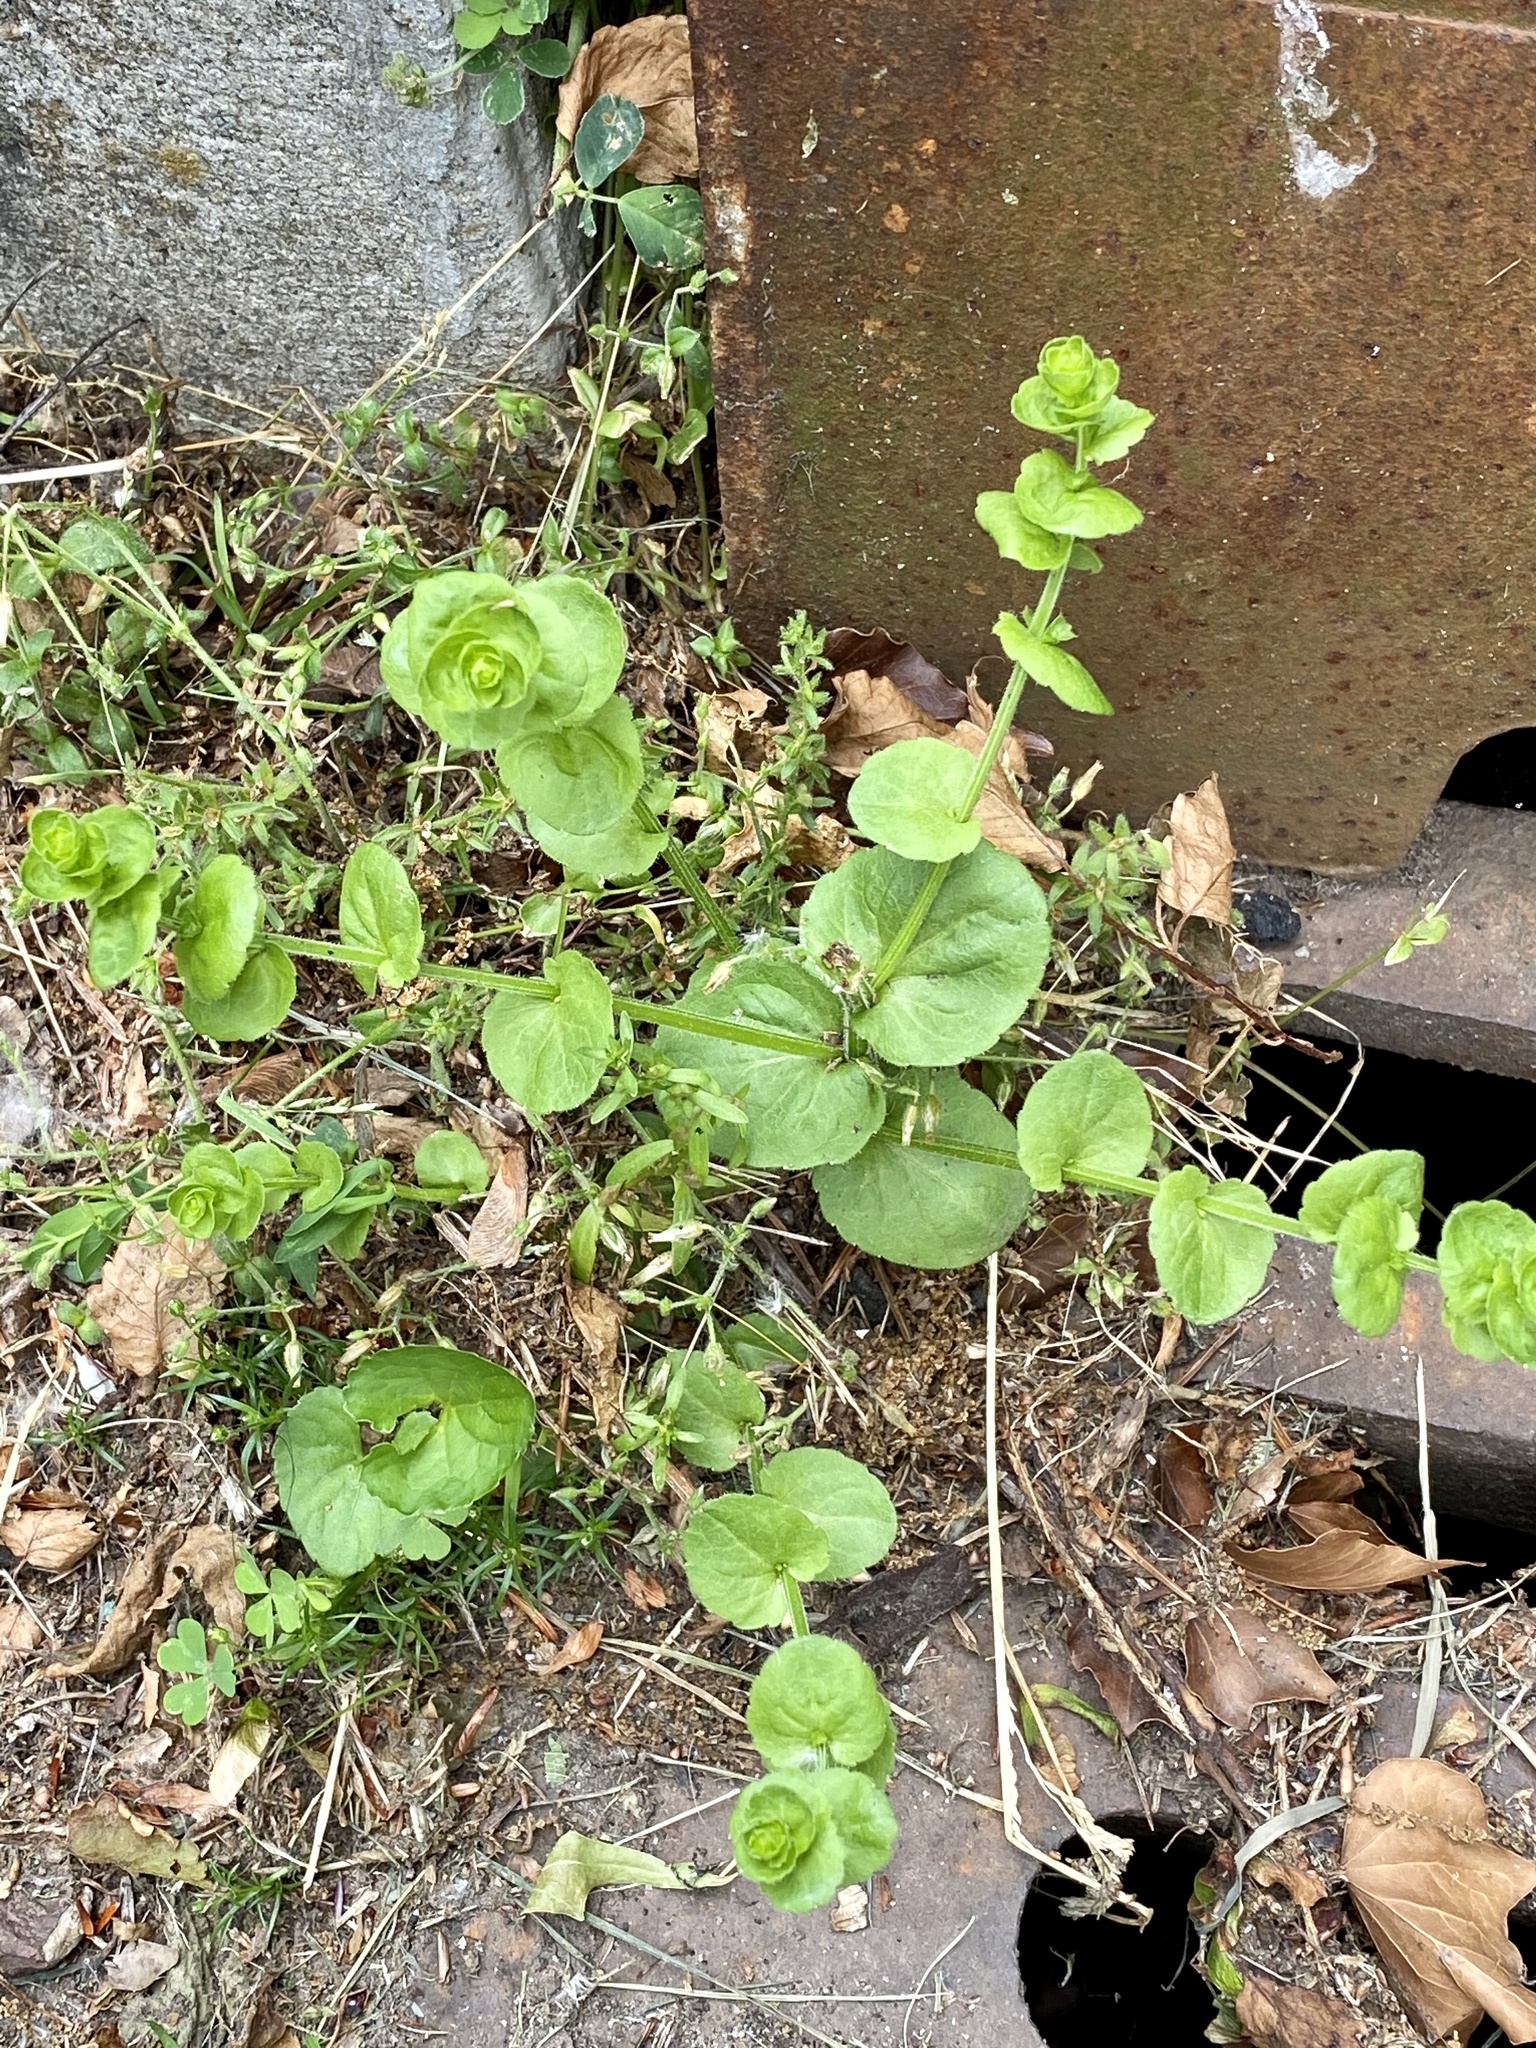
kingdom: Plantae
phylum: Tracheophyta
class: Magnoliopsida
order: Asterales
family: Campanulaceae
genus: Triodanis
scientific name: Triodanis perfoliata
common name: Clasping venus' looking-glass
